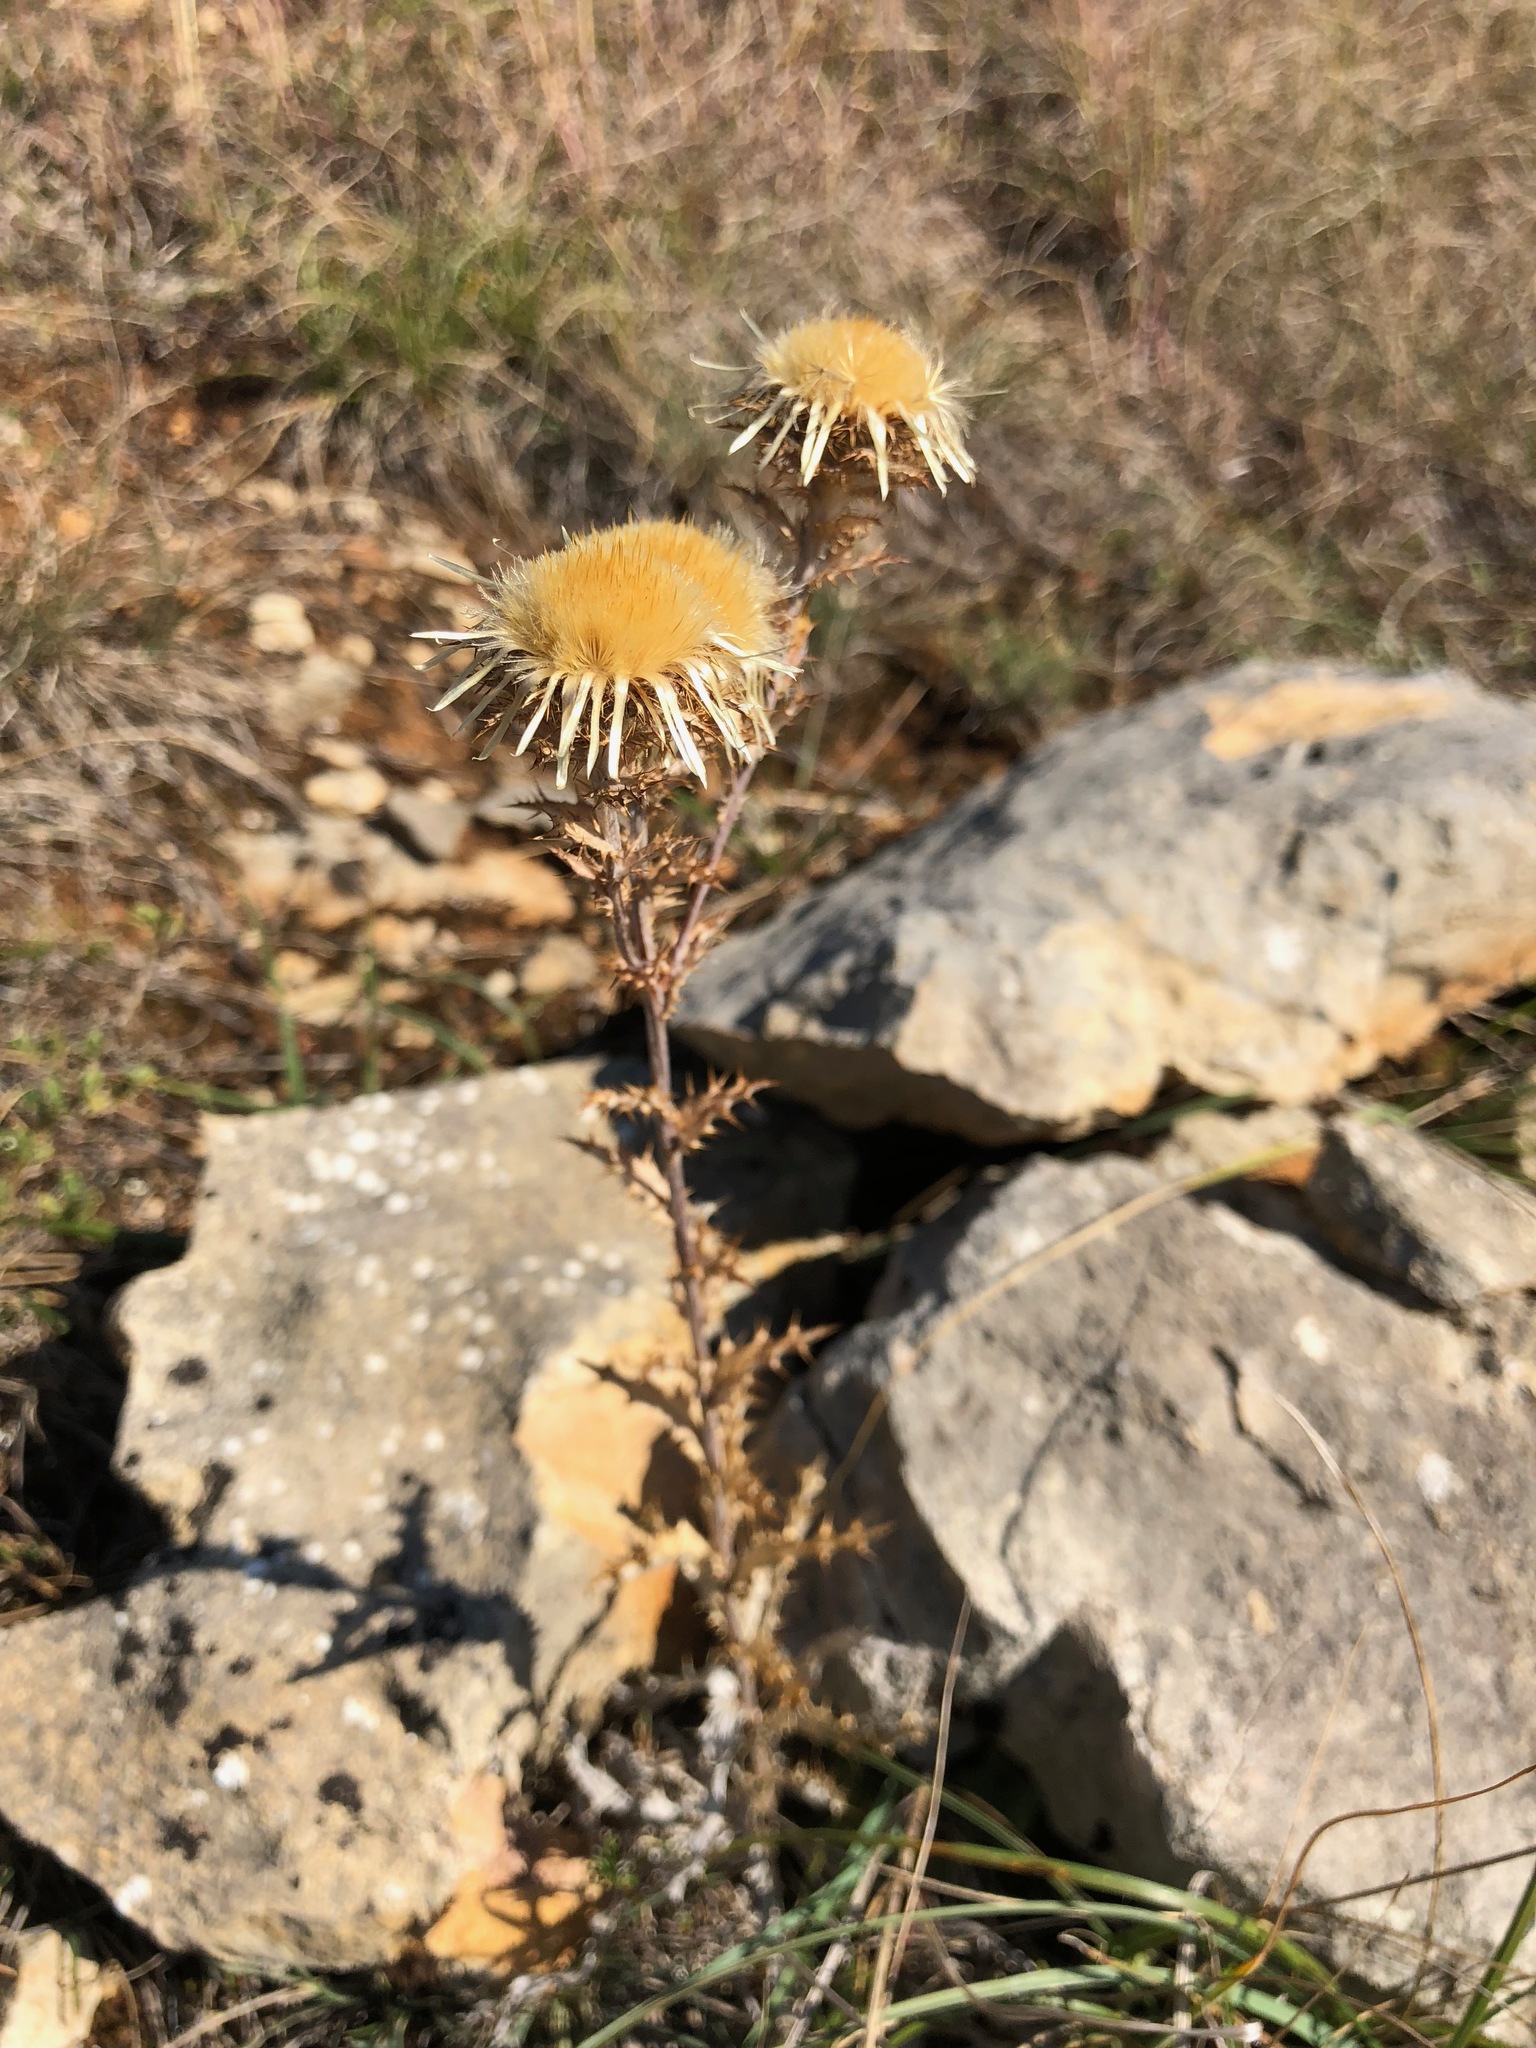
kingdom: Plantae
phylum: Tracheophyta
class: Magnoliopsida
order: Asterales
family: Asteraceae
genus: Carlina
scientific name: Carlina vulgaris
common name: Carline thistle
